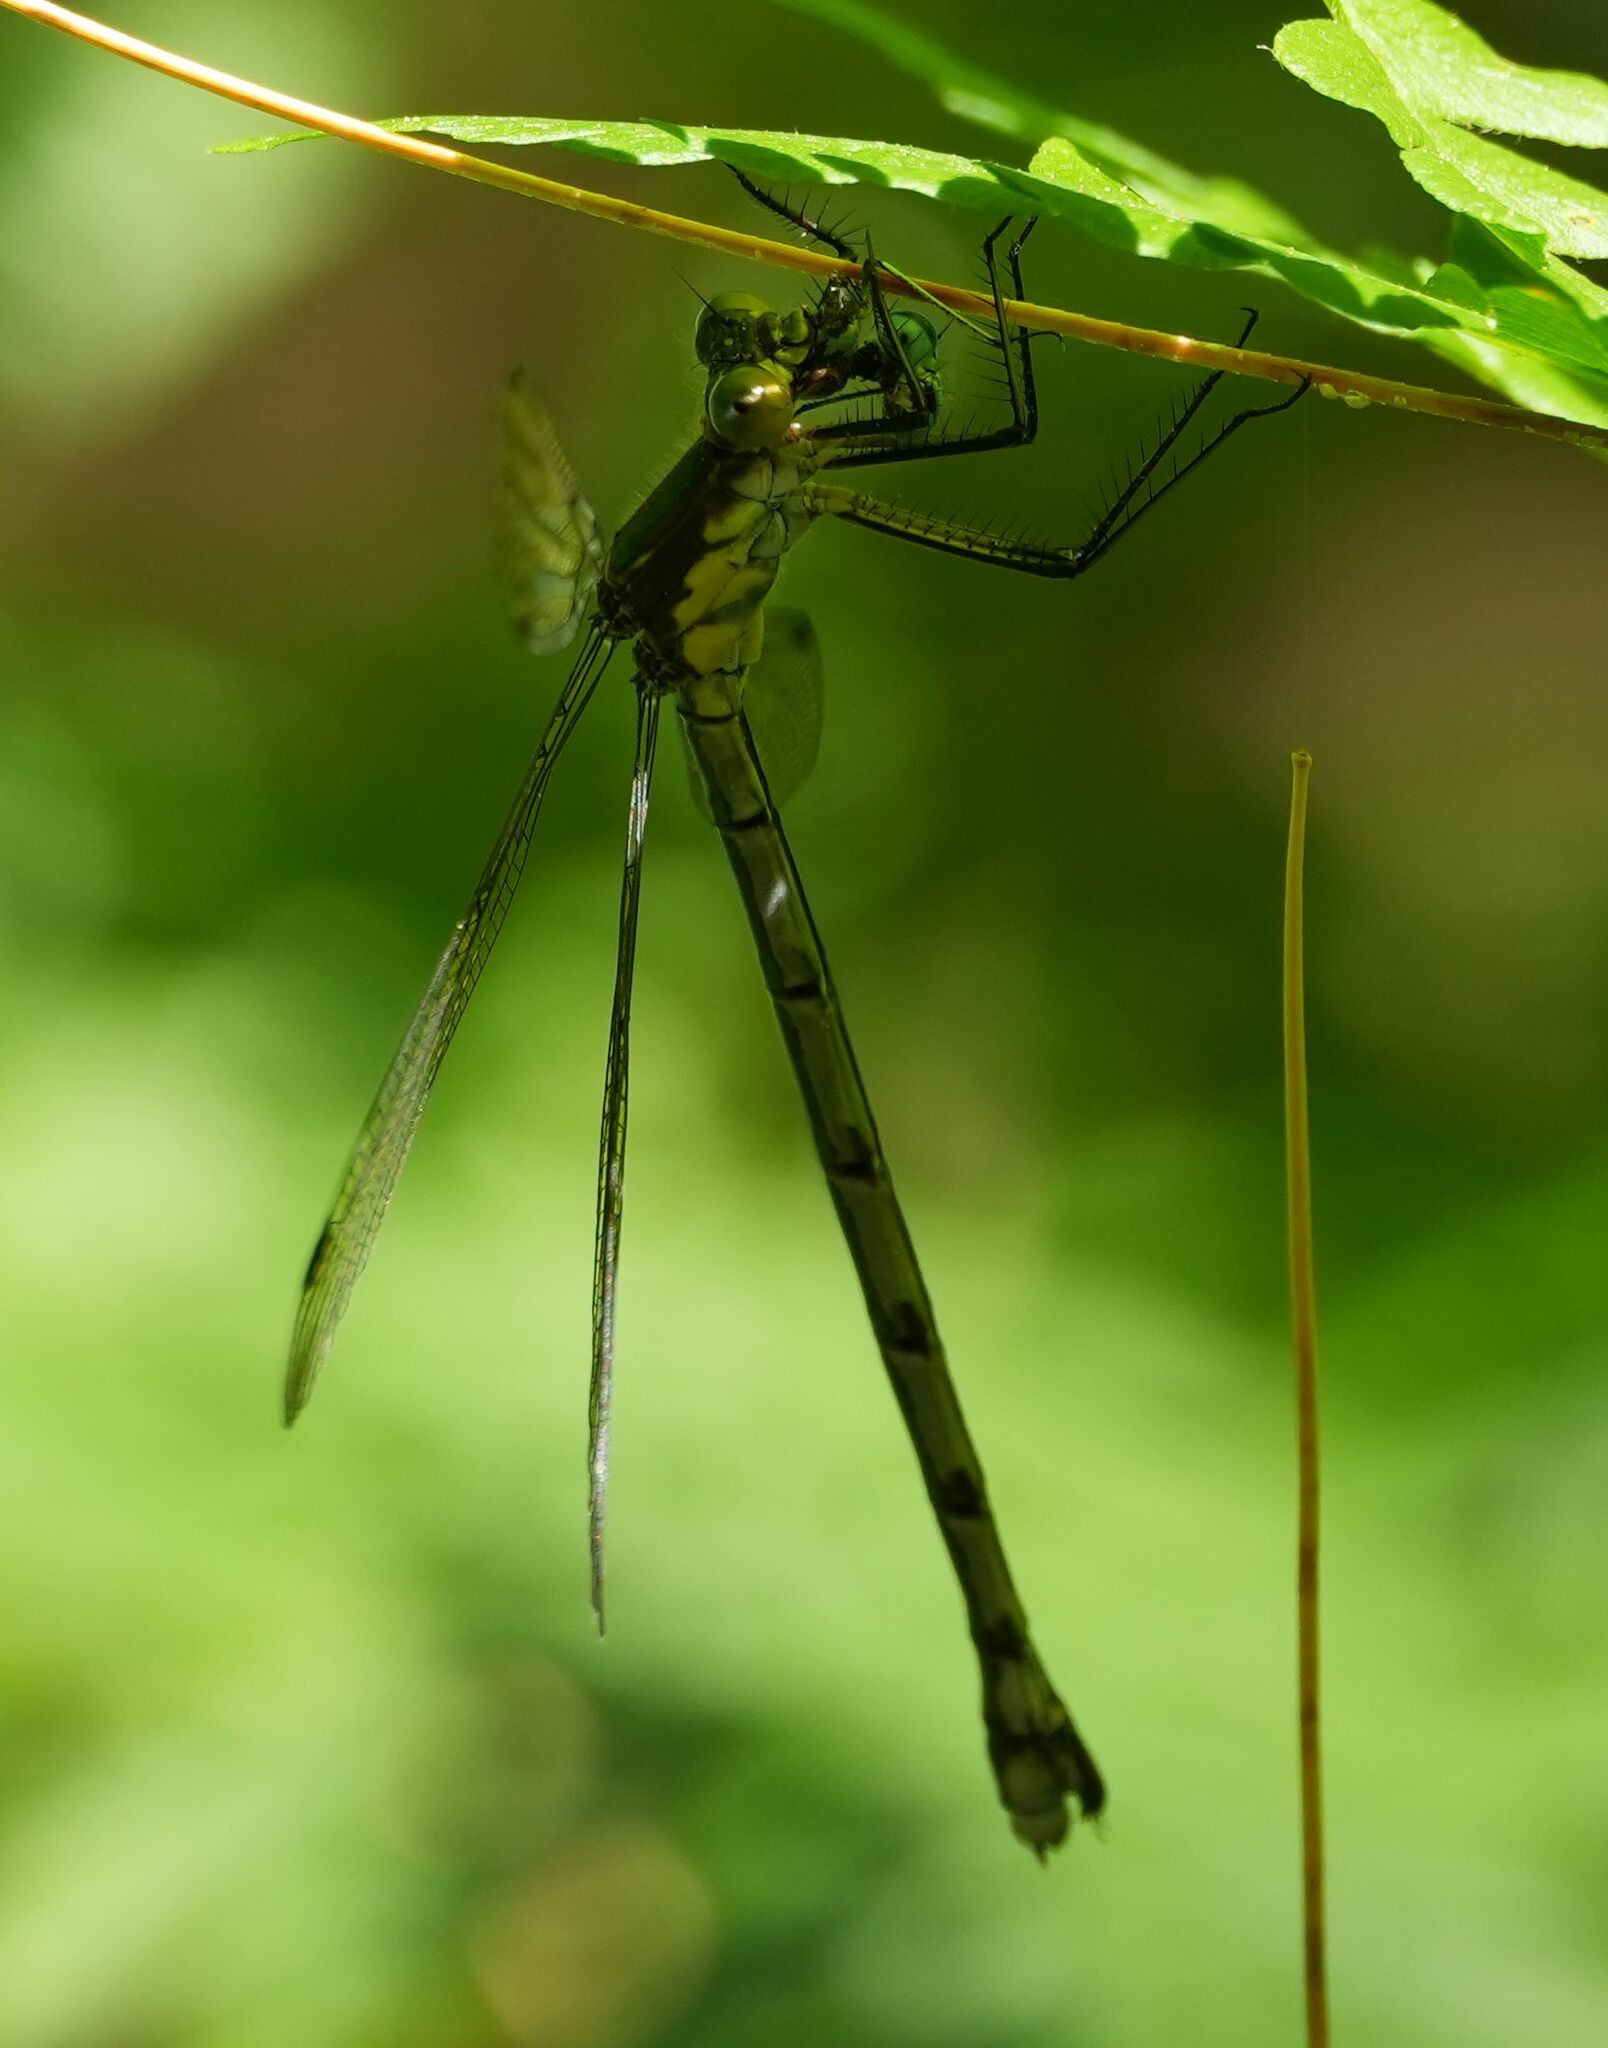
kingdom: Animalia
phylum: Arthropoda
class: Insecta
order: Odonata
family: Lestidae
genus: Lestes
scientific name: Lestes eurinus
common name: Amber-winged spreadwing
